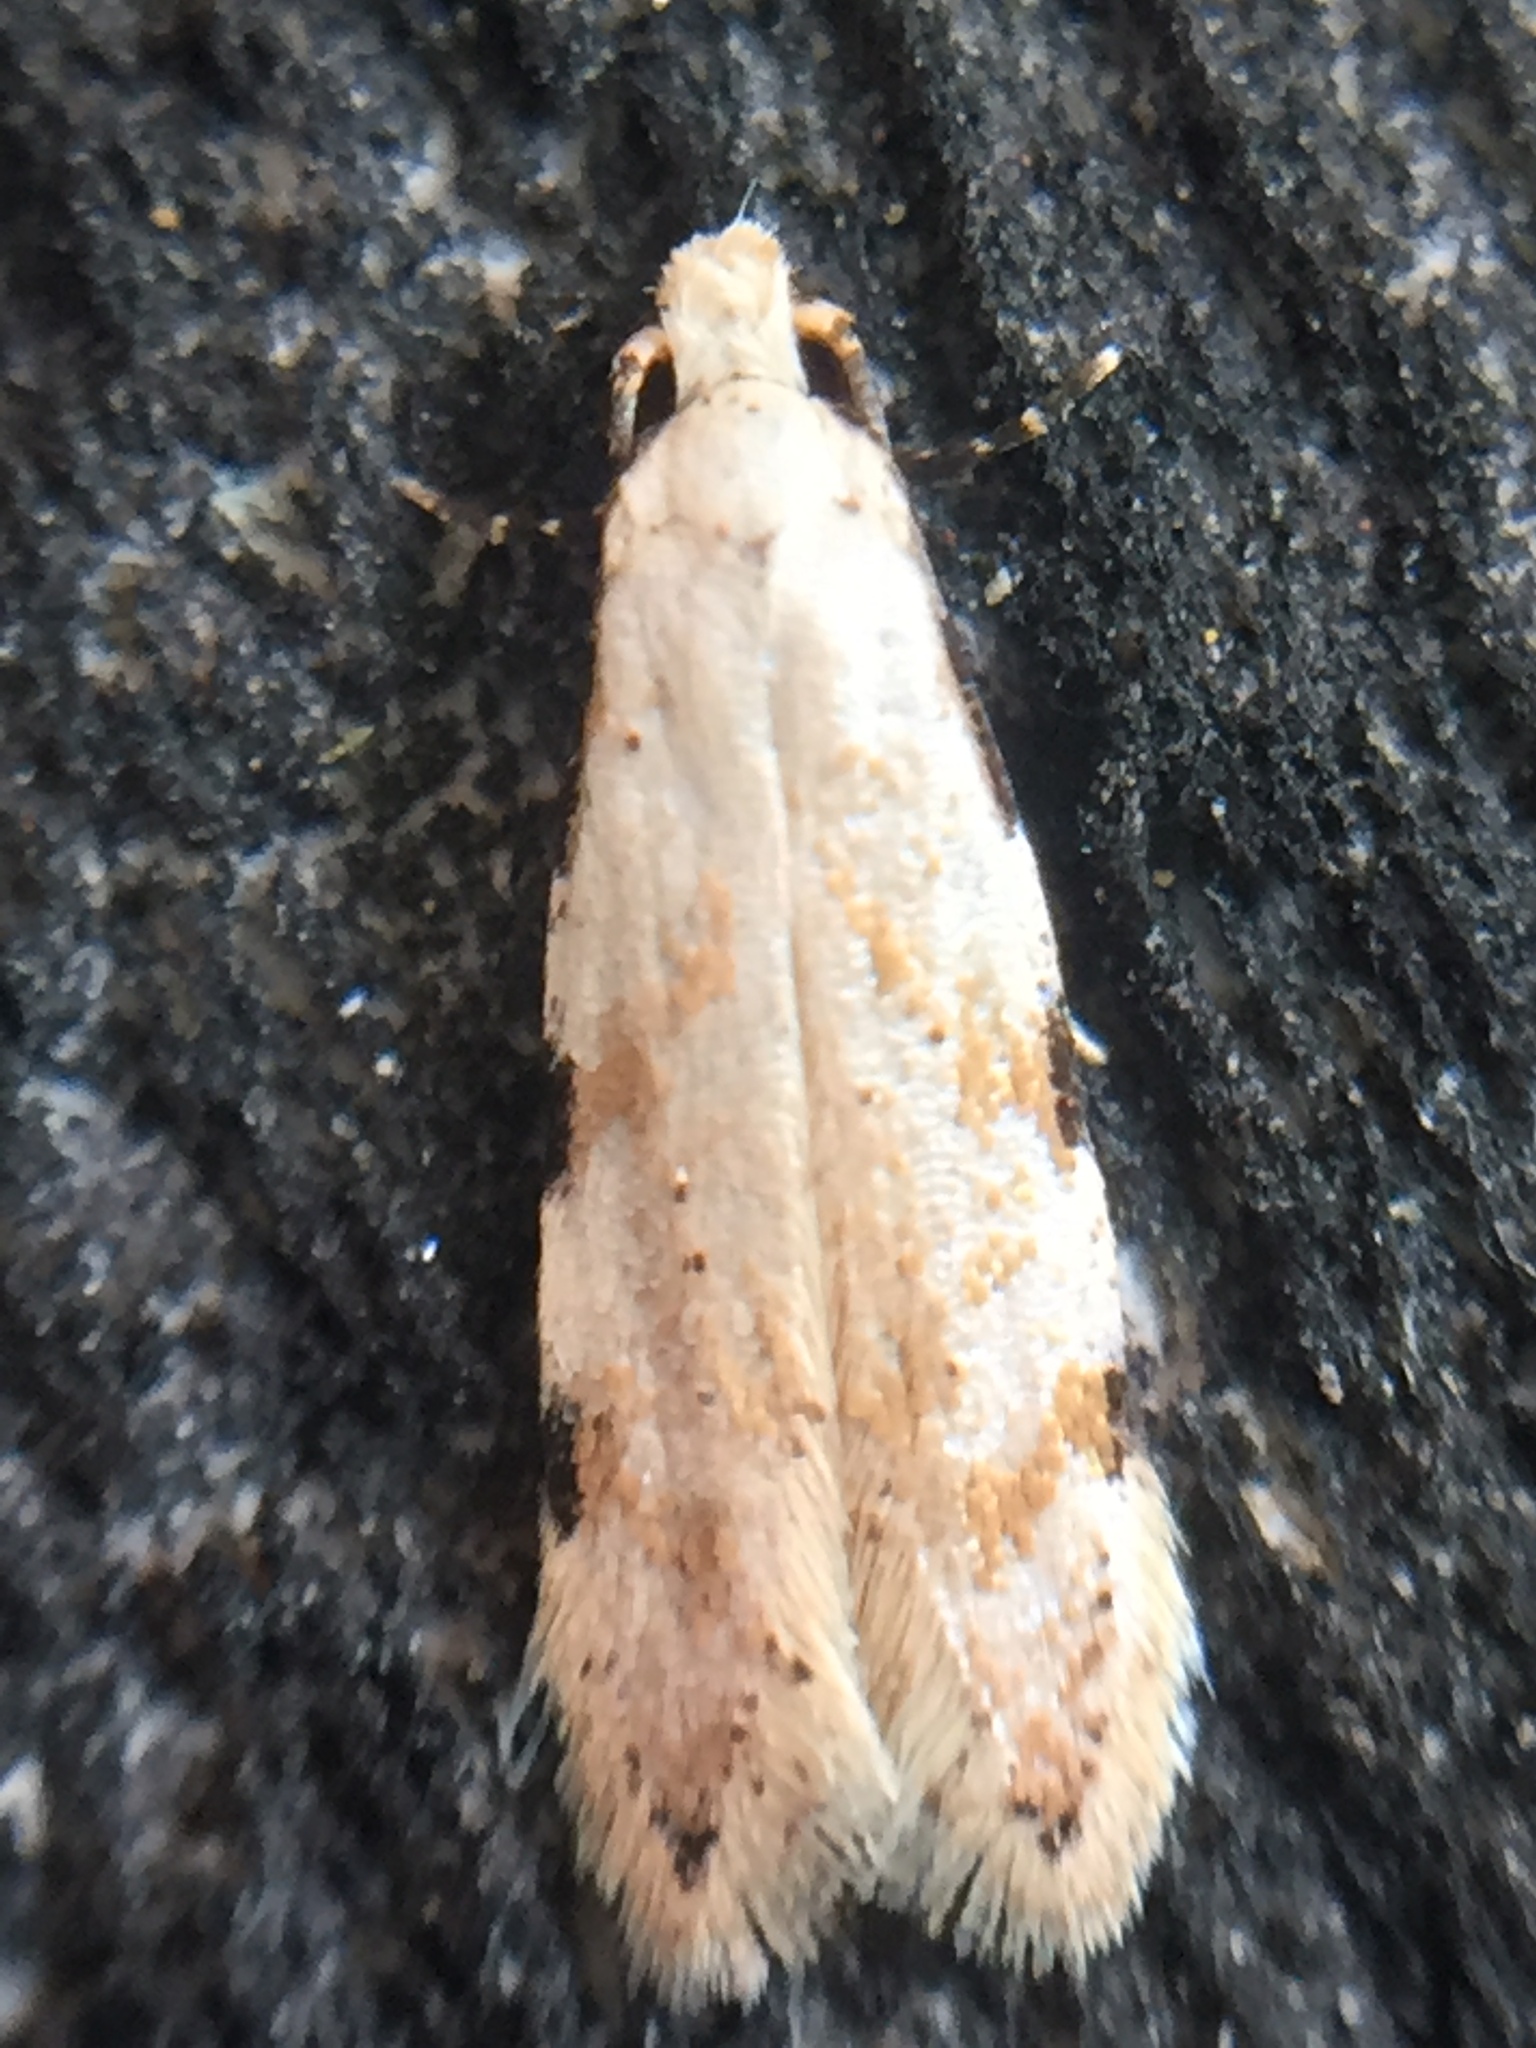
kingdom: Animalia
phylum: Arthropoda
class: Insecta
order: Lepidoptera
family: Tineidae
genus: Endophthora
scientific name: Endophthora omogramma
